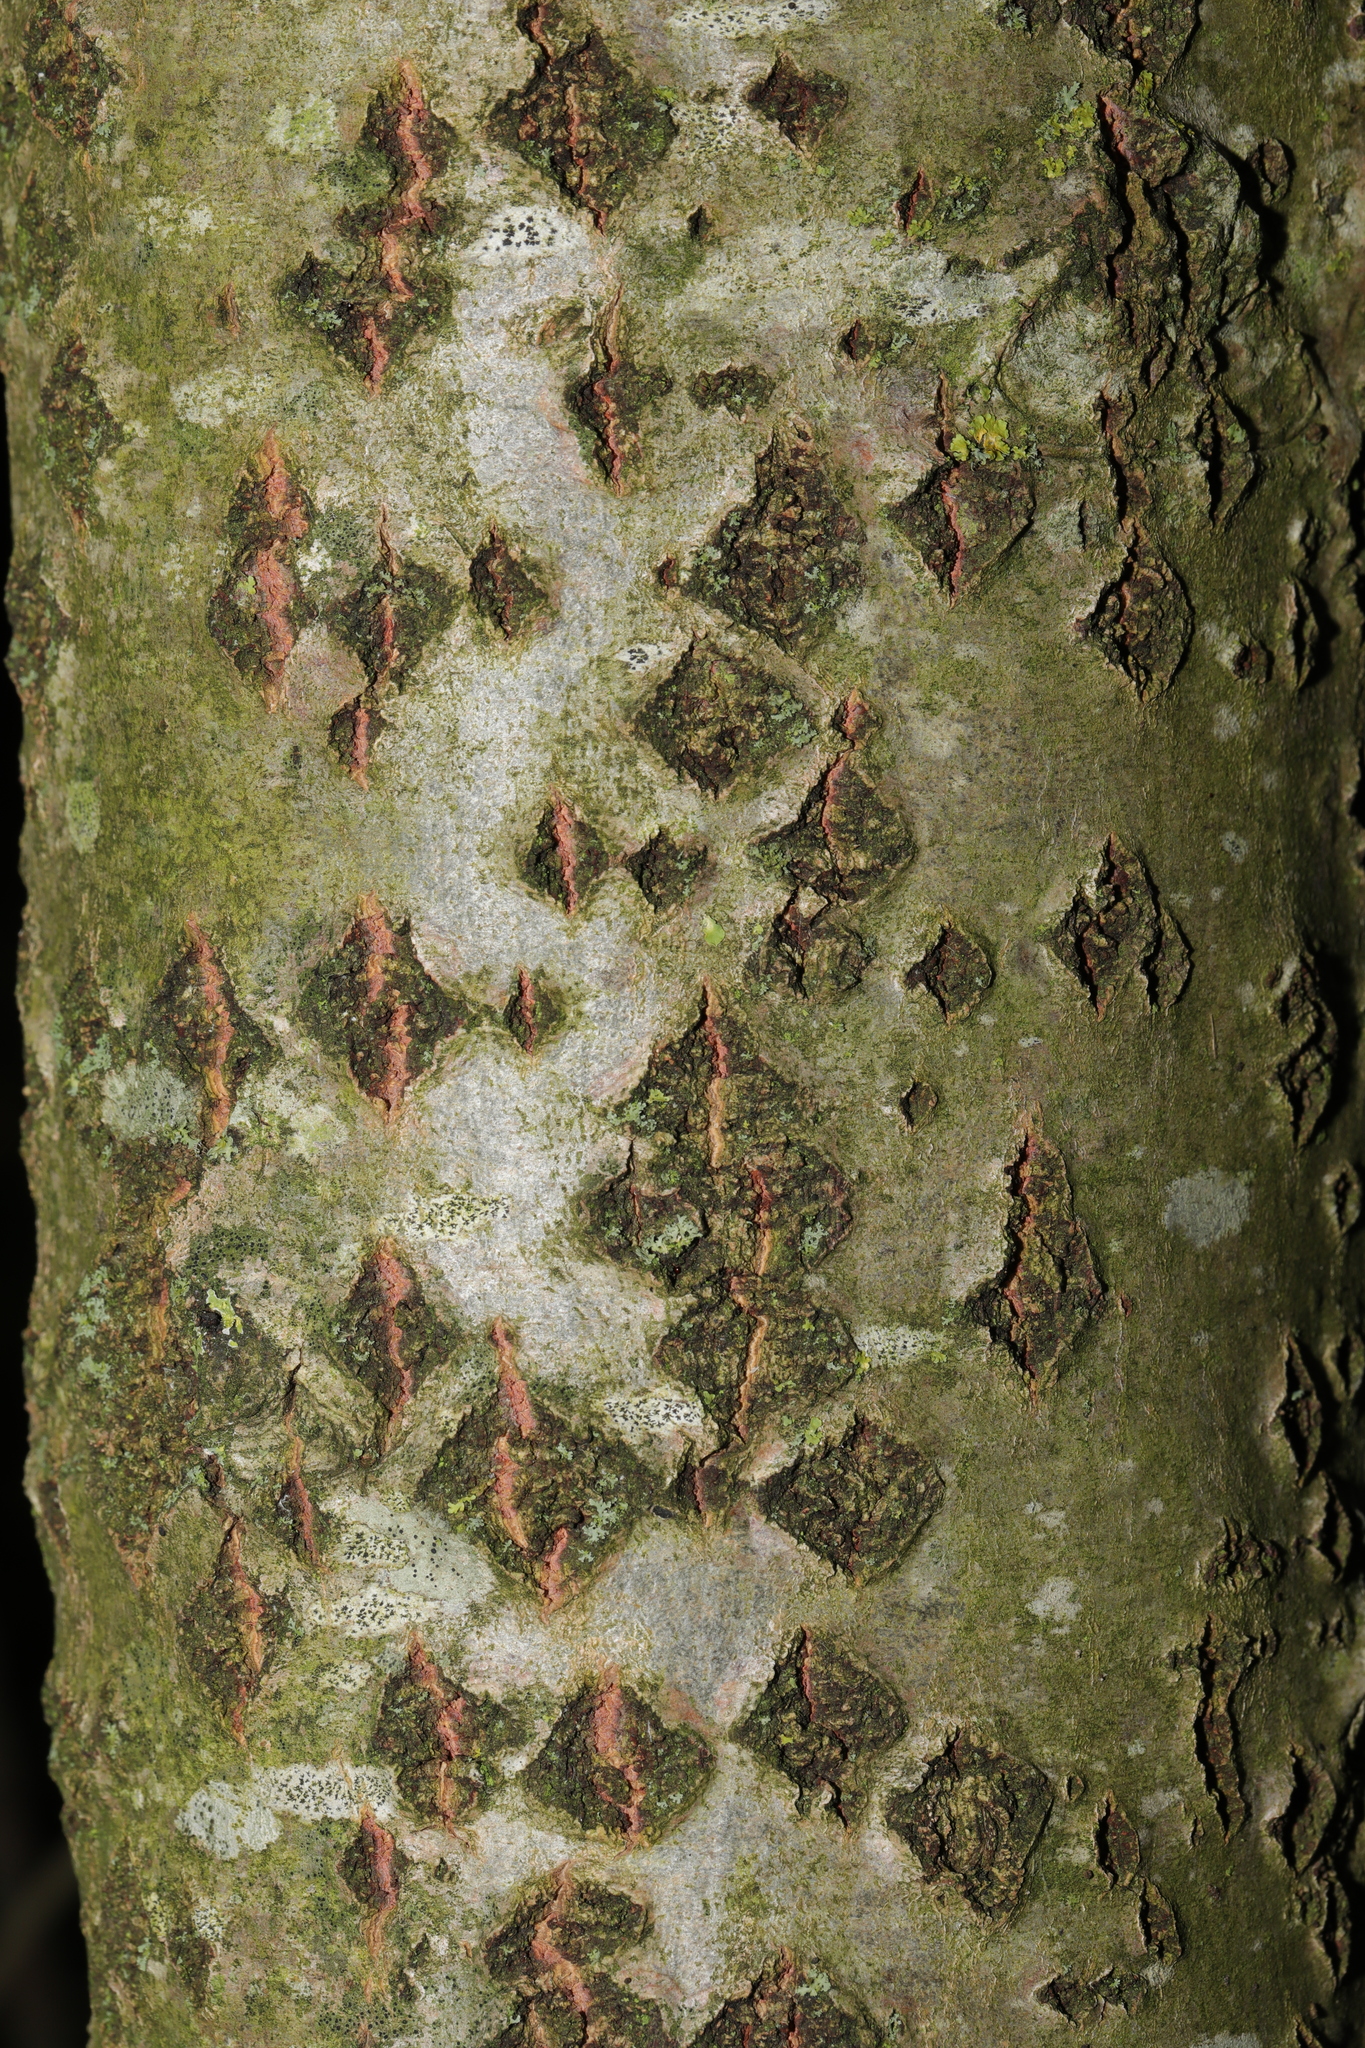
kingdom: Plantae
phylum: Tracheophyta
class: Magnoliopsida
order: Malpighiales
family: Salicaceae
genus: Populus
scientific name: Populus alba
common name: White poplar
